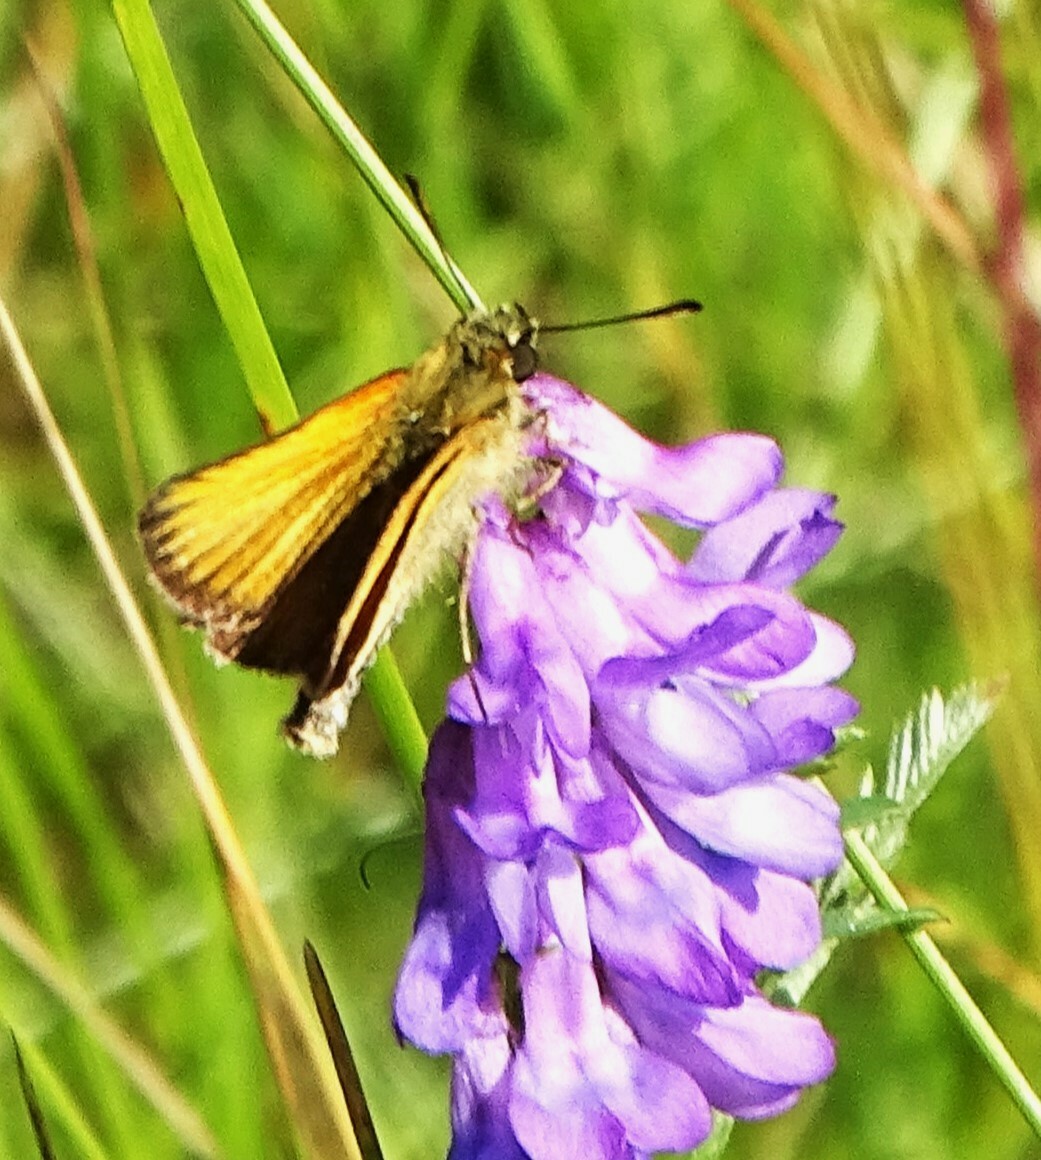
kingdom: Animalia
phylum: Arthropoda
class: Insecta
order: Lepidoptera
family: Hesperiidae
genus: Thymelicus
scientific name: Thymelicus lineola
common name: Essex skipper
